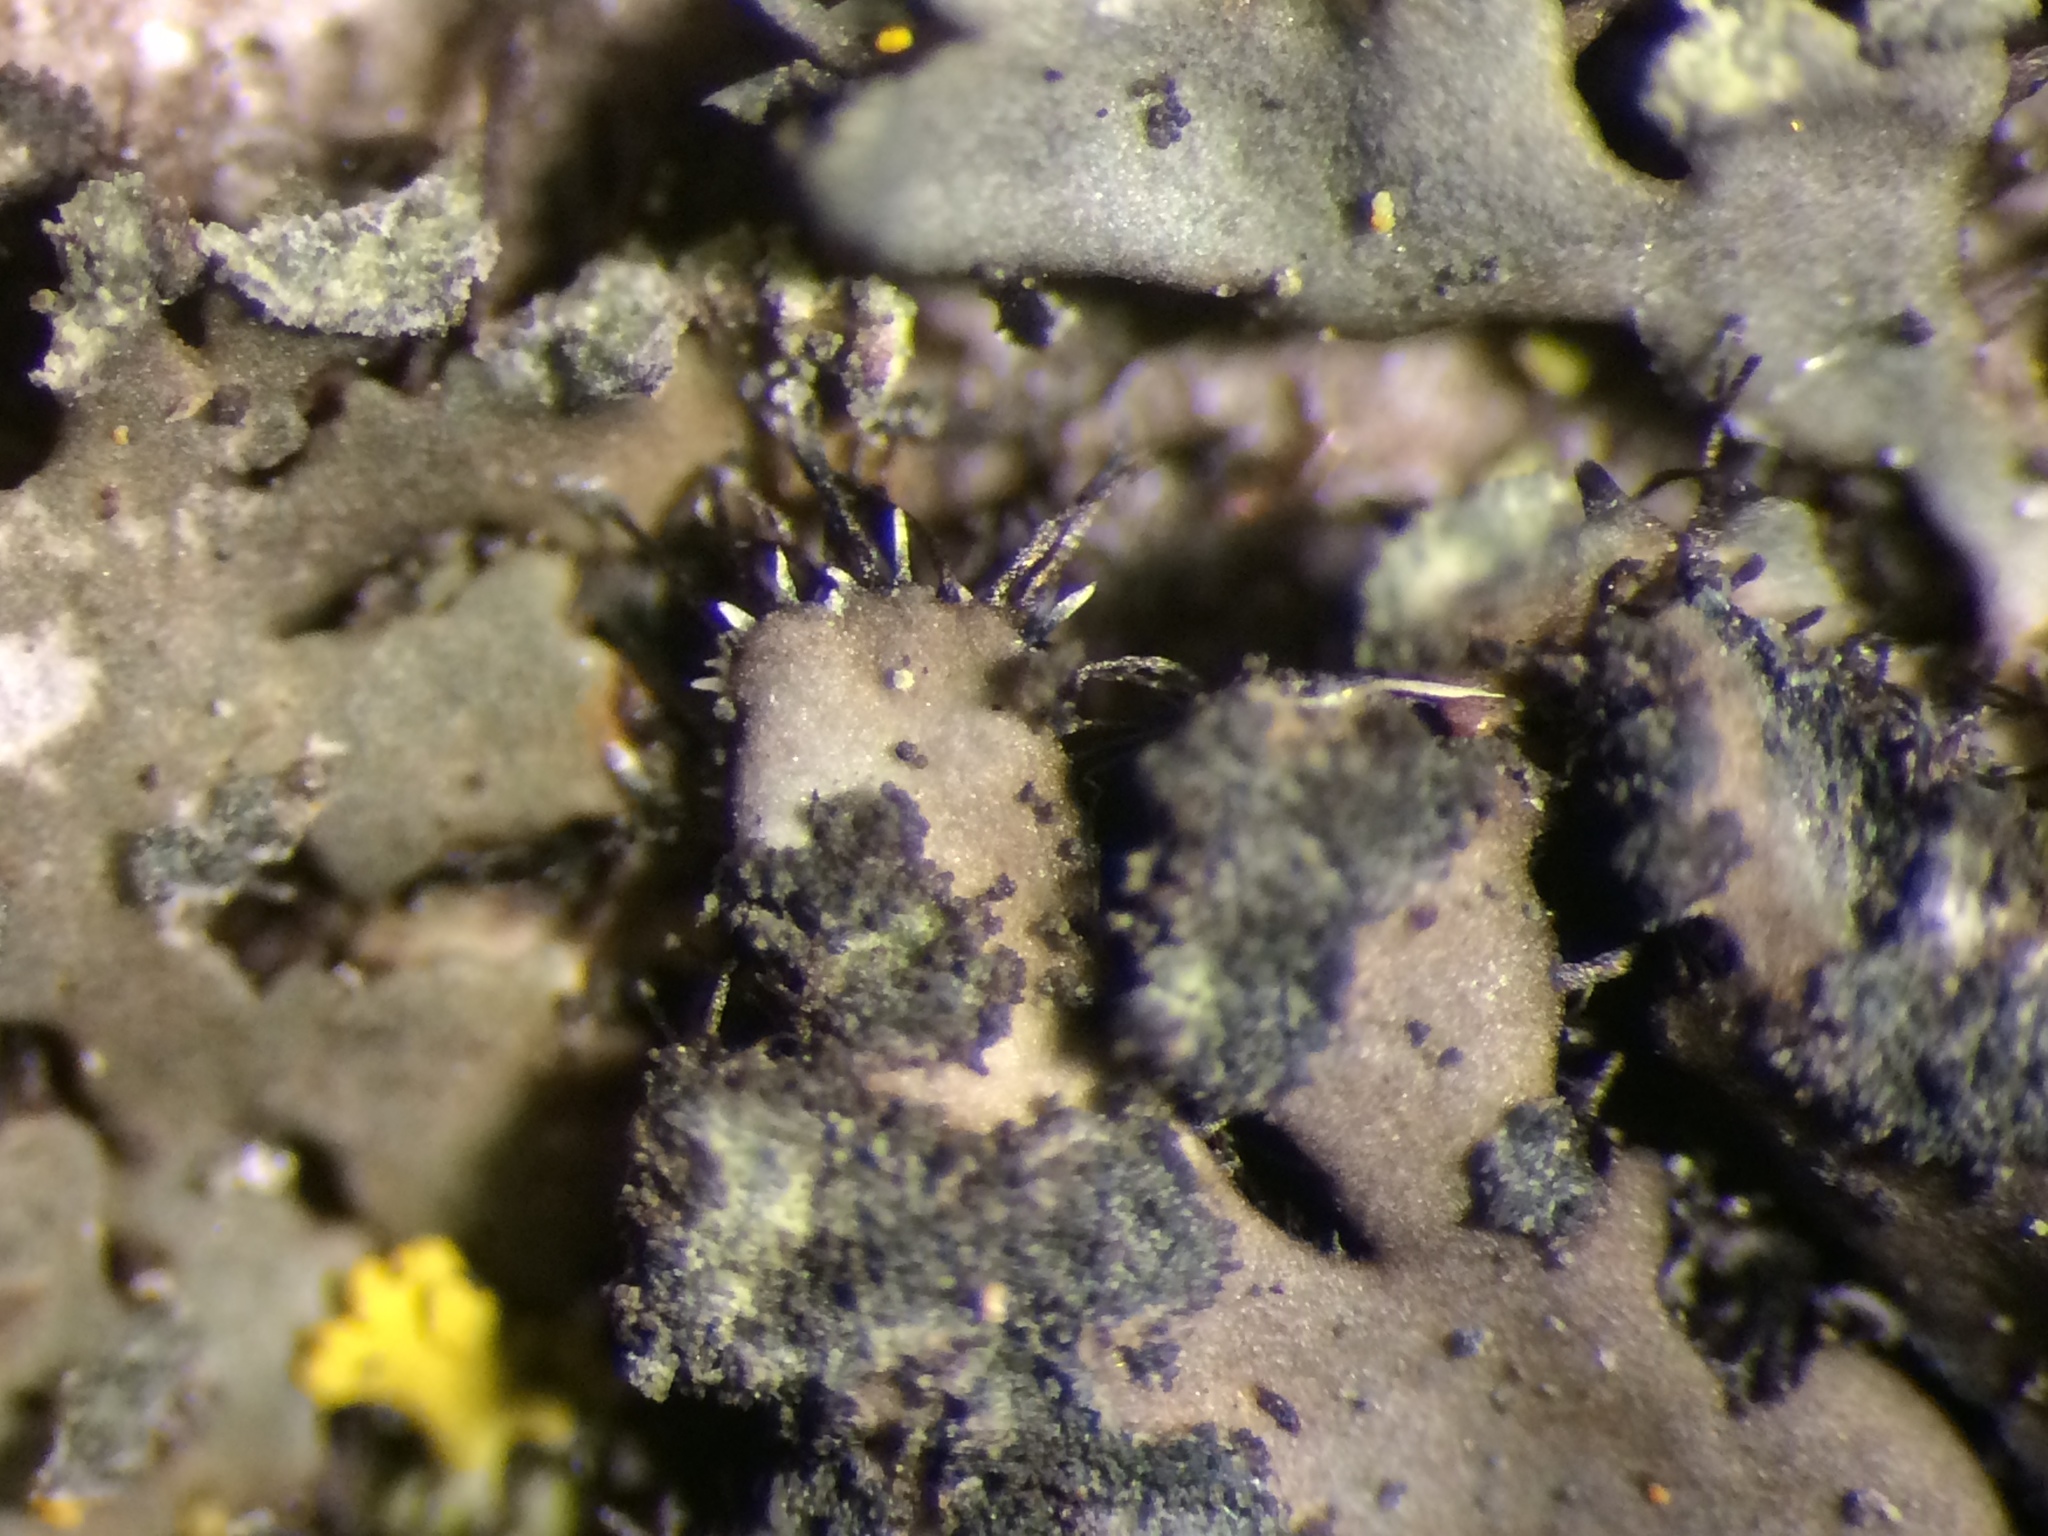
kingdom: Fungi
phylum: Ascomycota
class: Lecanoromycetes
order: Caliciales
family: Physciaceae
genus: Phaeophyscia
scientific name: Phaeophyscia orbicularis
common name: Mealy shadow lichen
